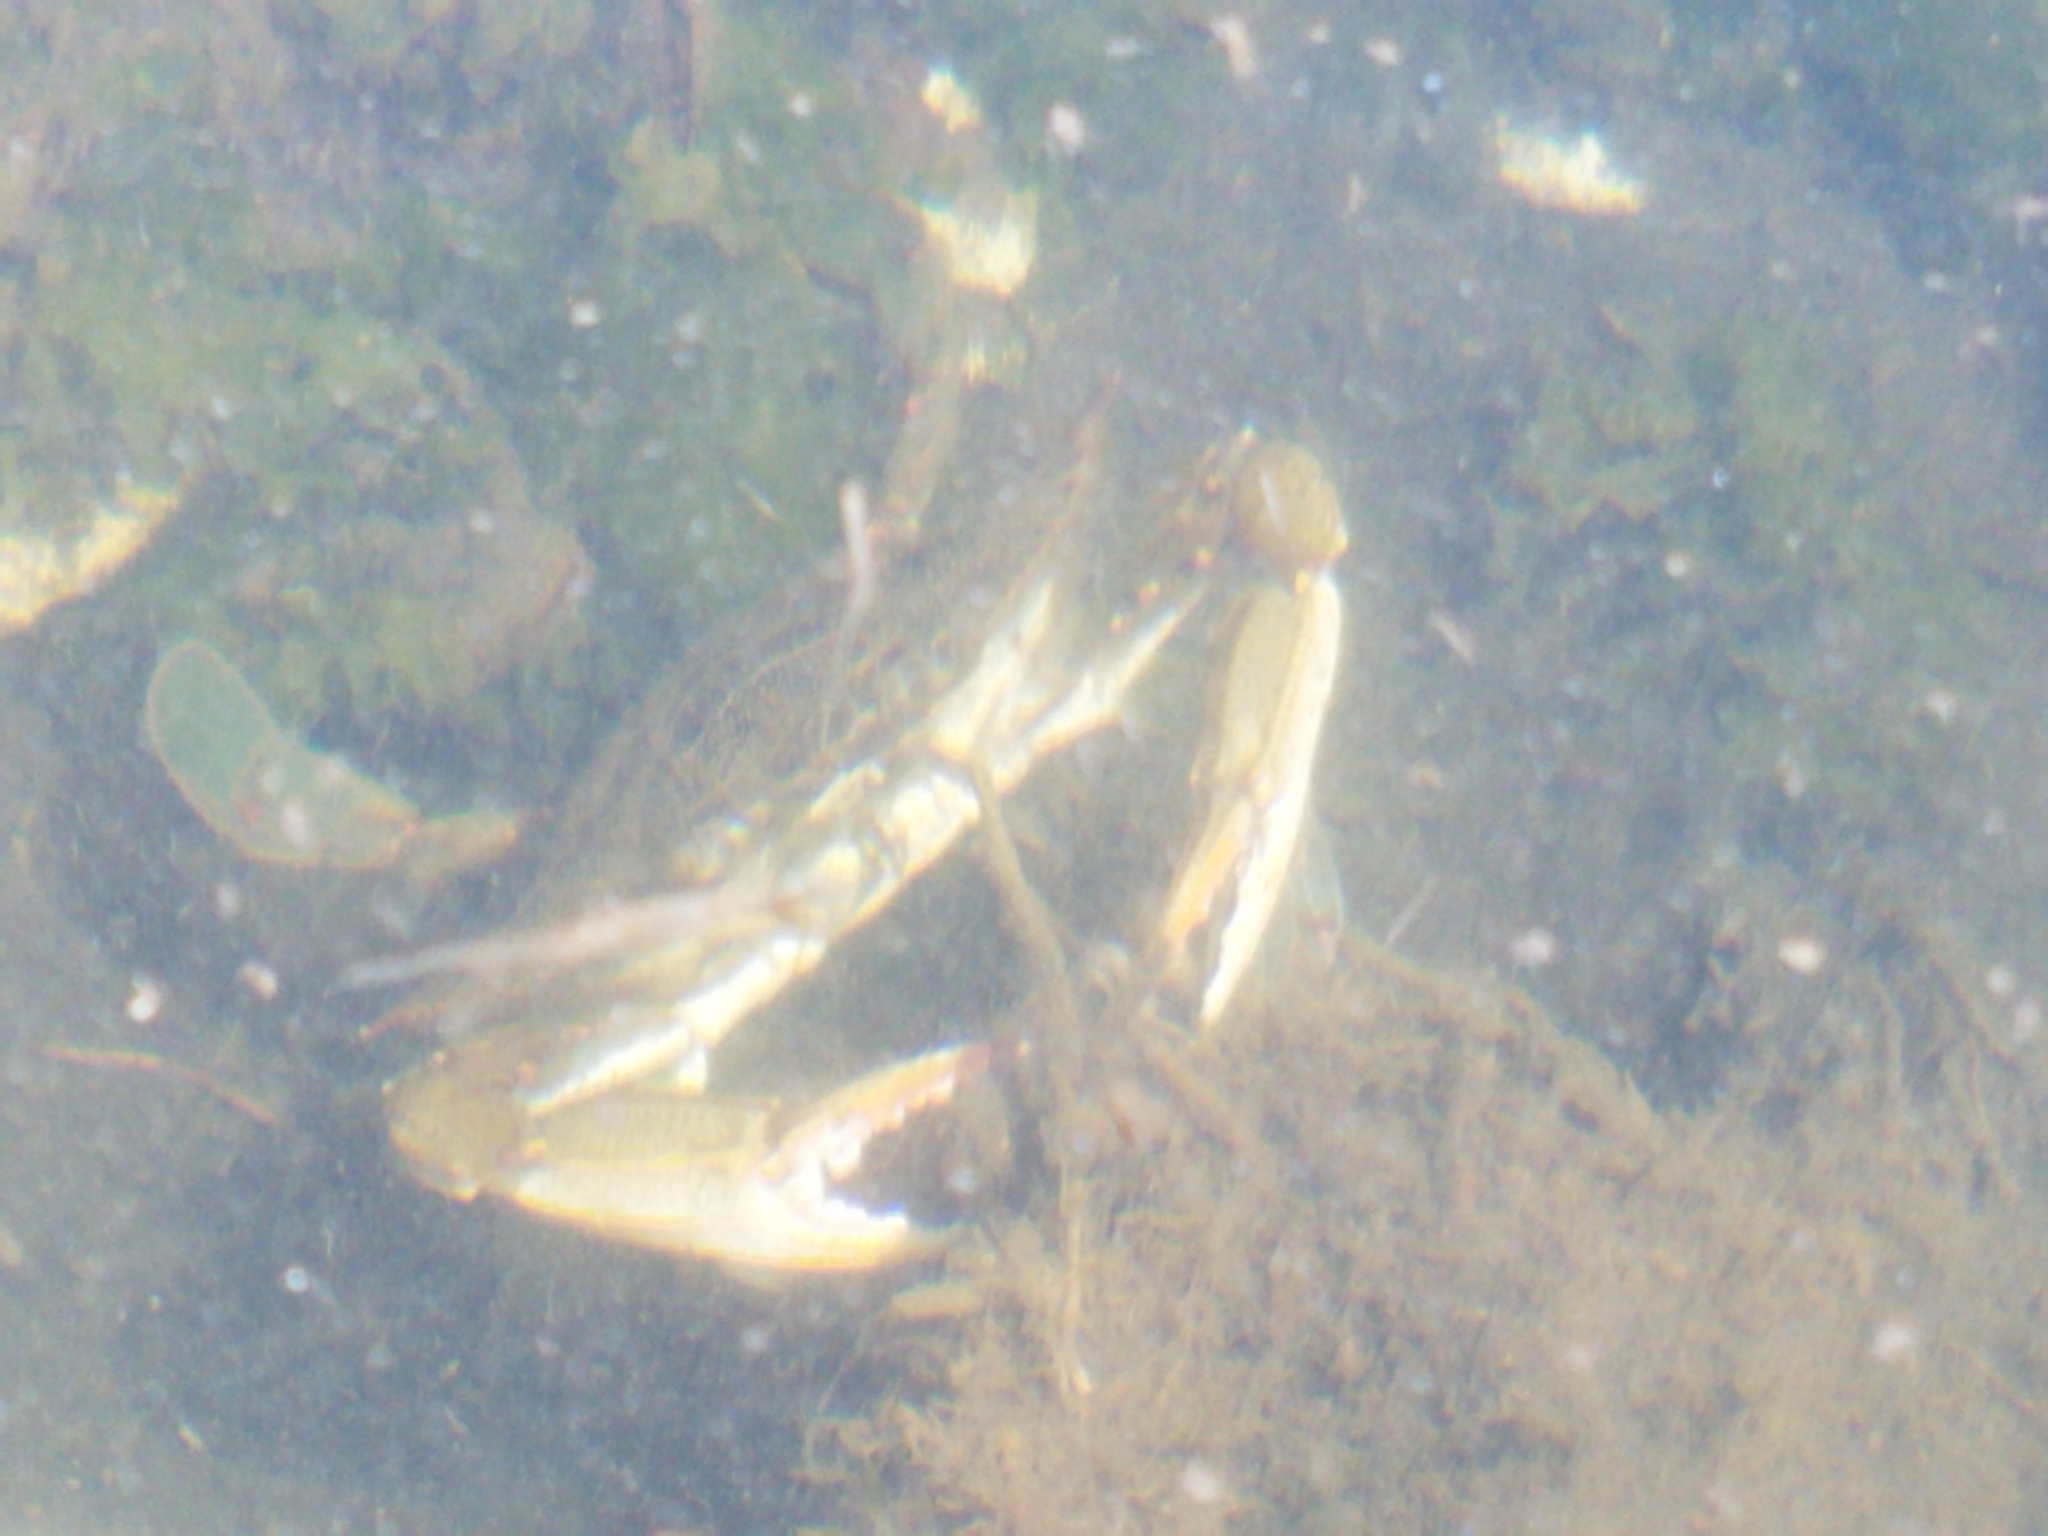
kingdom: Animalia
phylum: Arthropoda
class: Malacostraca
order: Decapoda
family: Portunidae
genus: Callinectes
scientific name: Callinectes sapidus
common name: Blue crab
